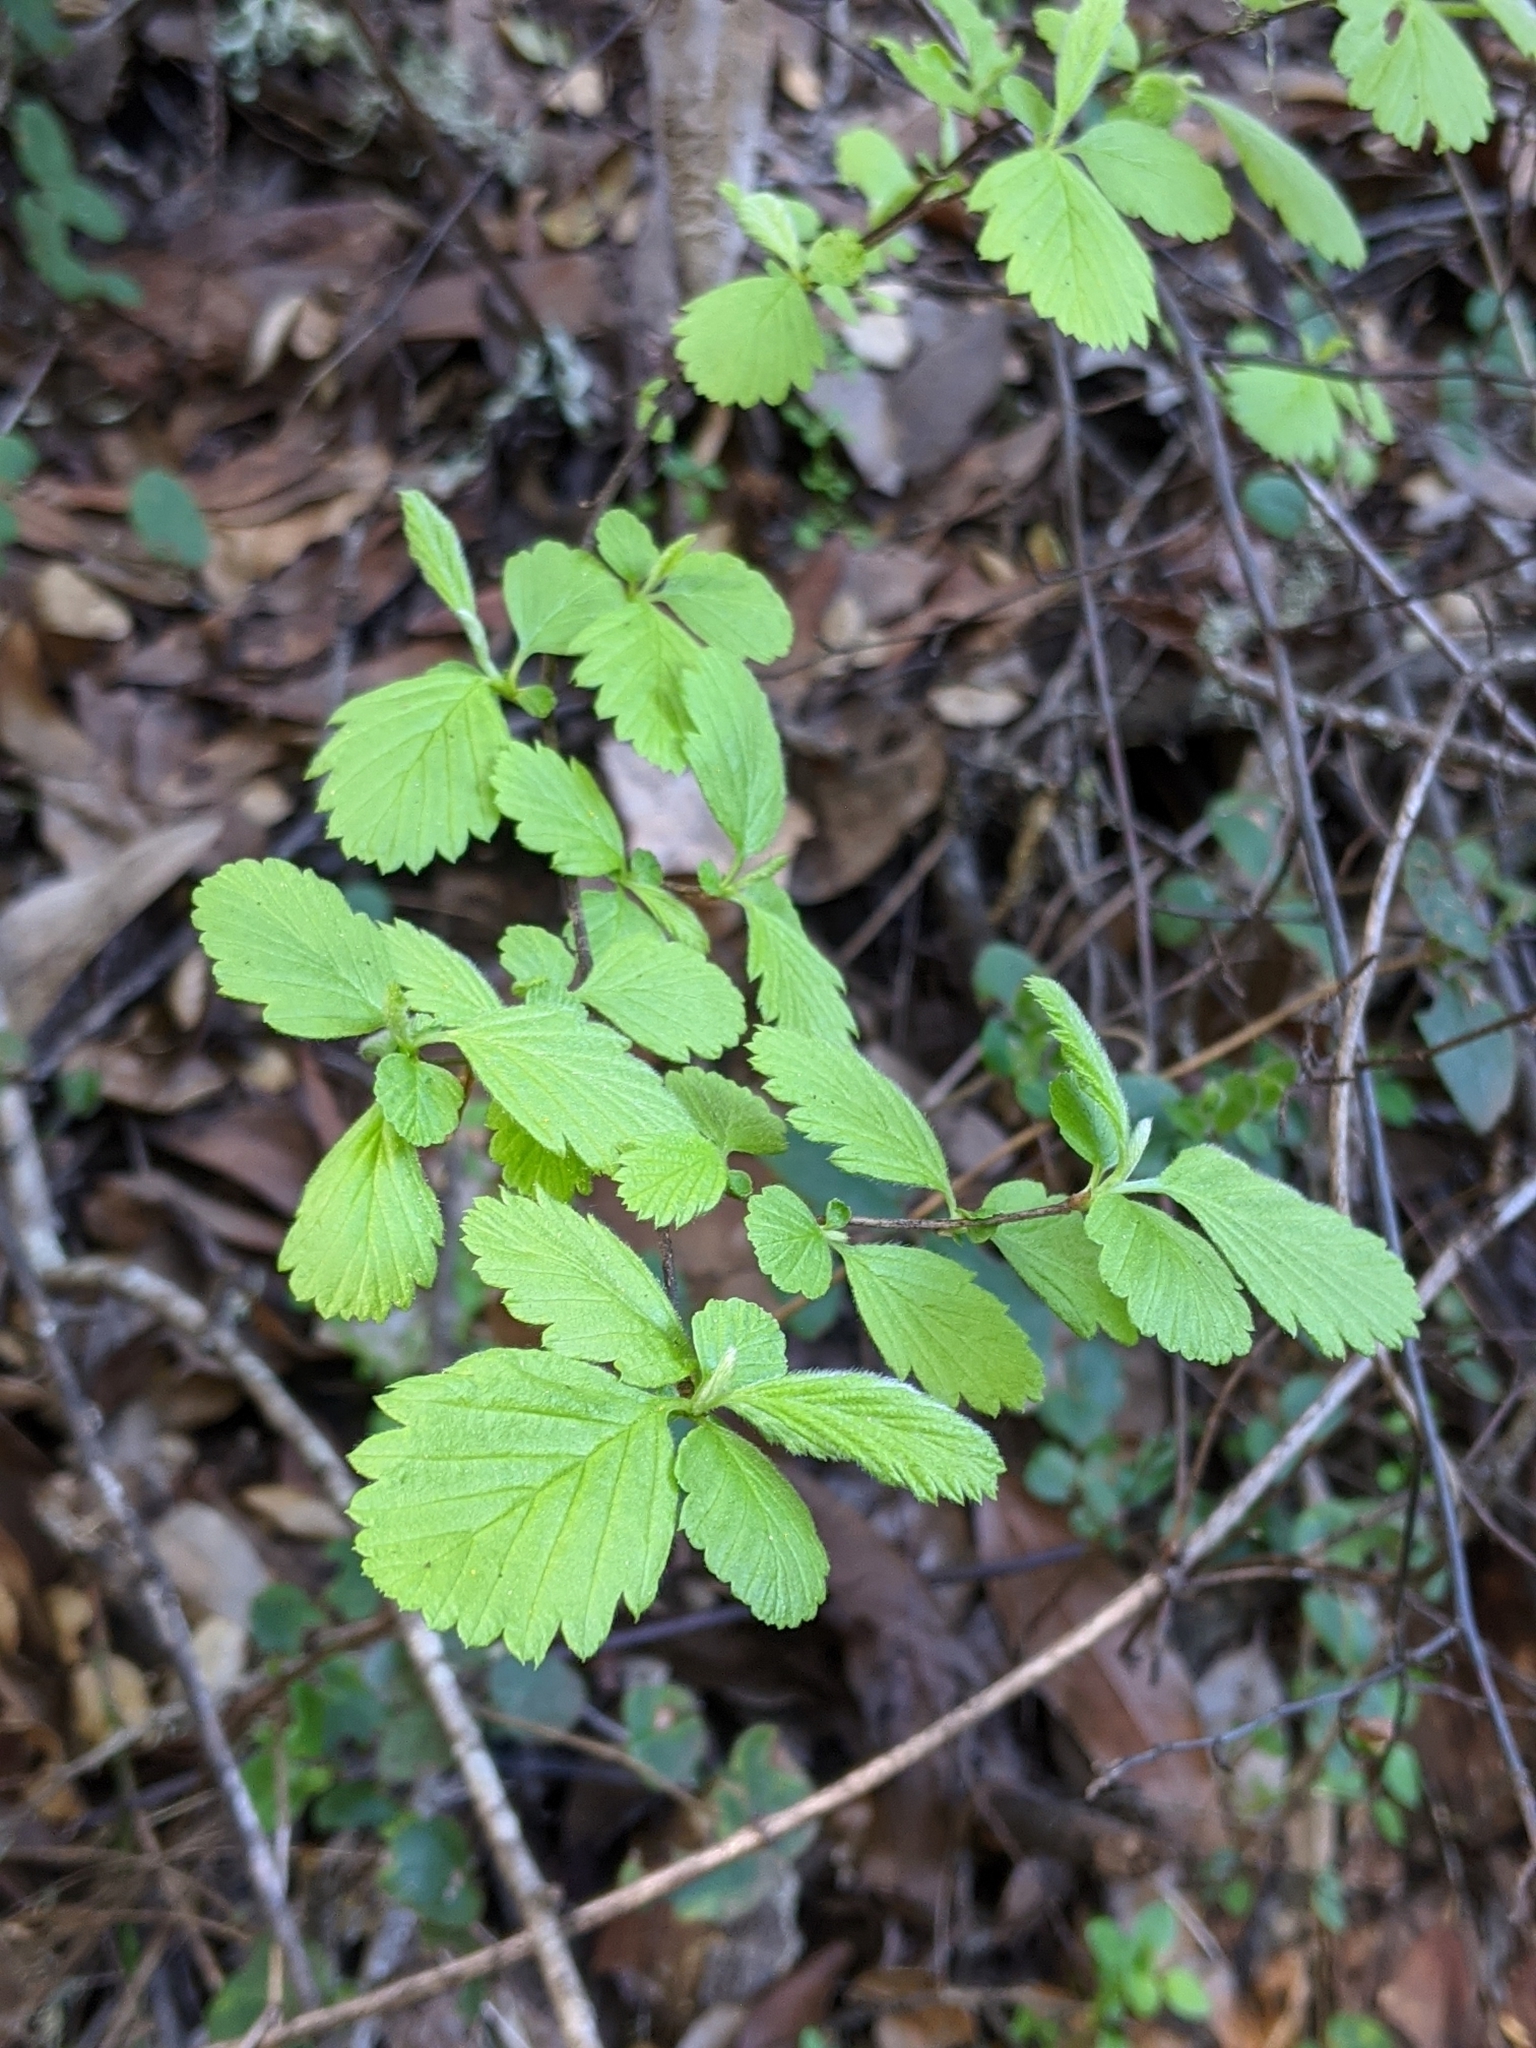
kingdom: Plantae
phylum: Tracheophyta
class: Magnoliopsida
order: Rosales
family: Rosaceae
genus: Holodiscus
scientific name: Holodiscus discolor
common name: Oceanspray
